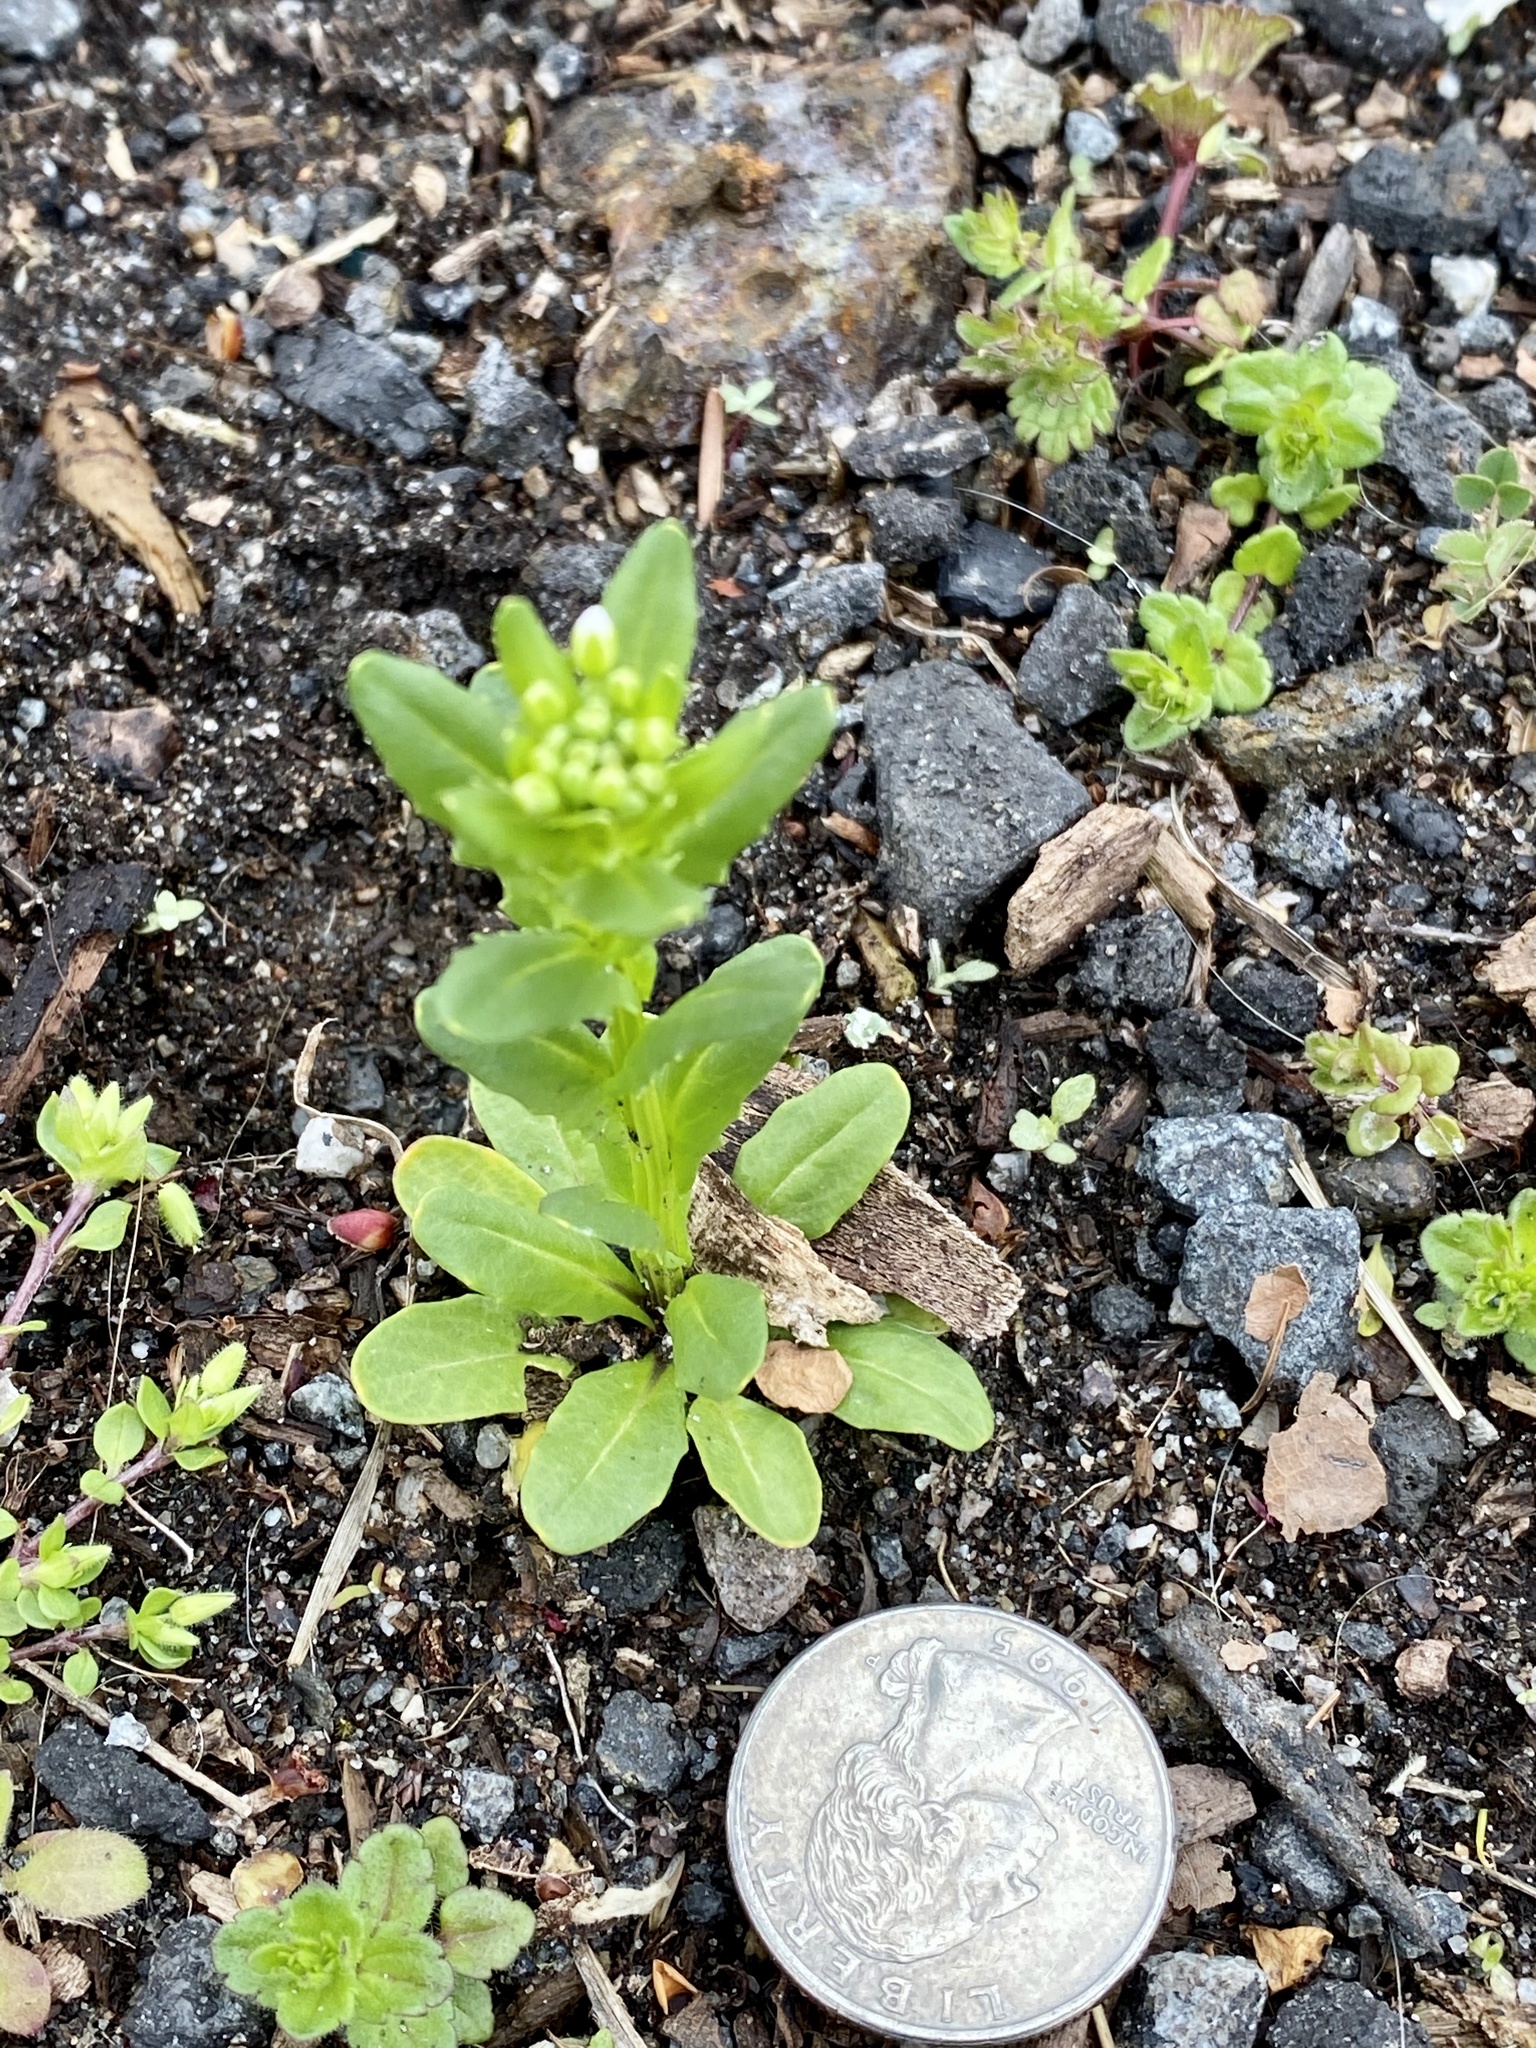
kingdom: Plantae
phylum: Tracheophyta
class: Magnoliopsida
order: Brassicales
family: Brassicaceae
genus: Thlaspi
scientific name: Thlaspi arvense
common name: Field pennycress
